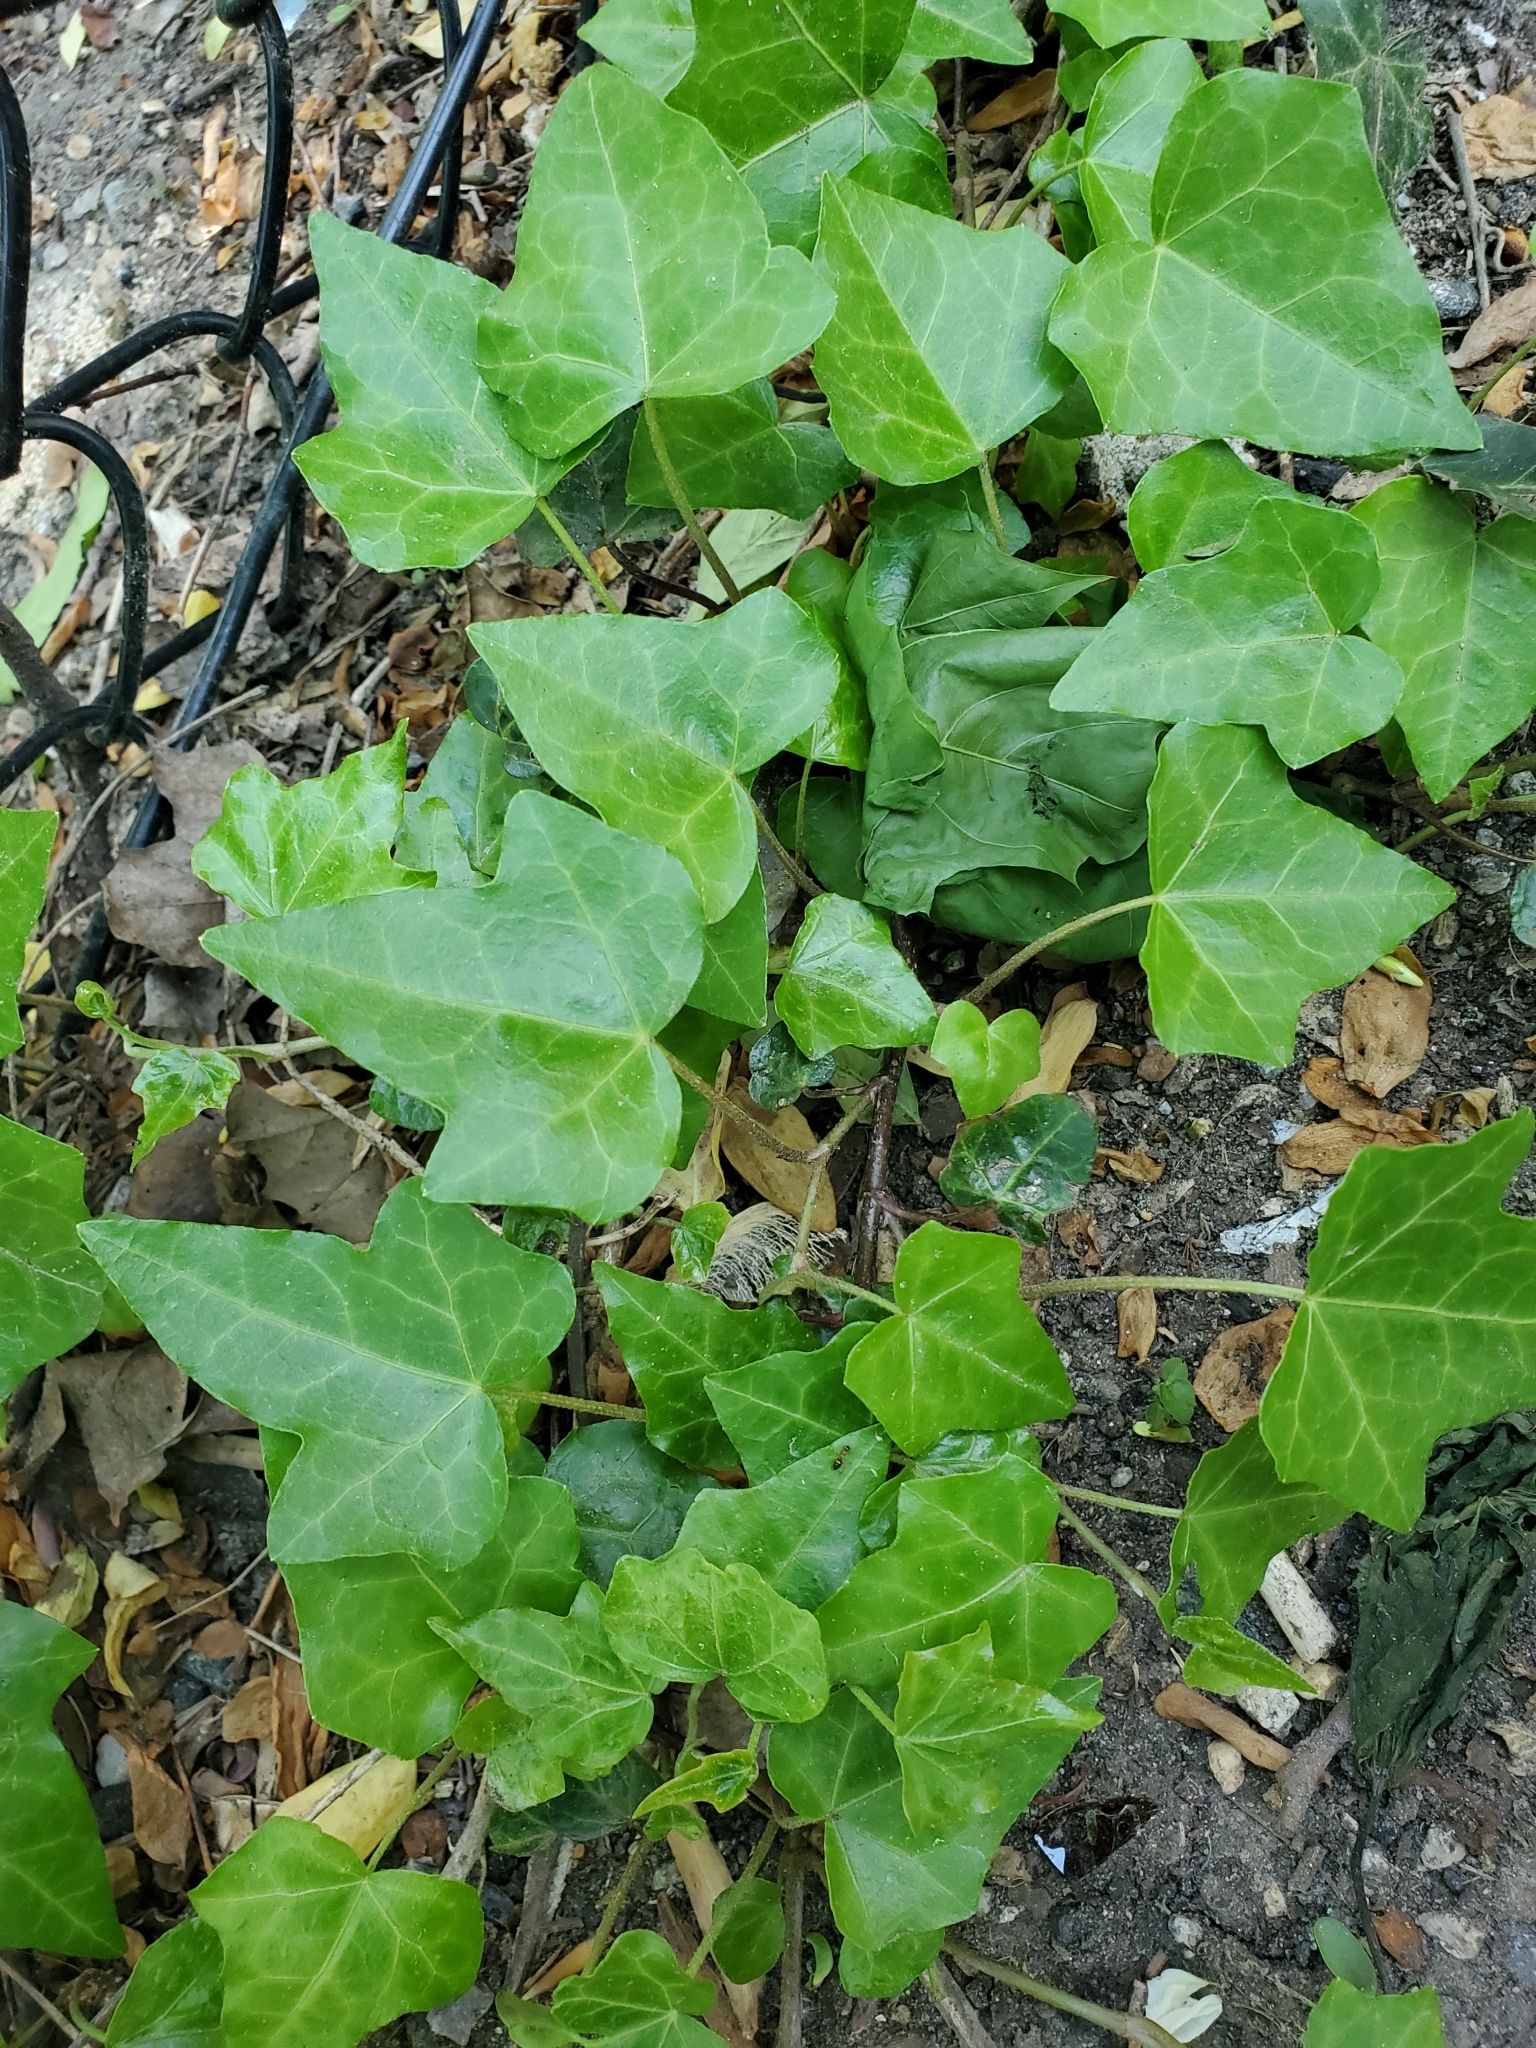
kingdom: Plantae
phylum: Tracheophyta
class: Magnoliopsida
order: Apiales
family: Araliaceae
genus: Hedera
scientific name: Hedera helix
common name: Ivy
